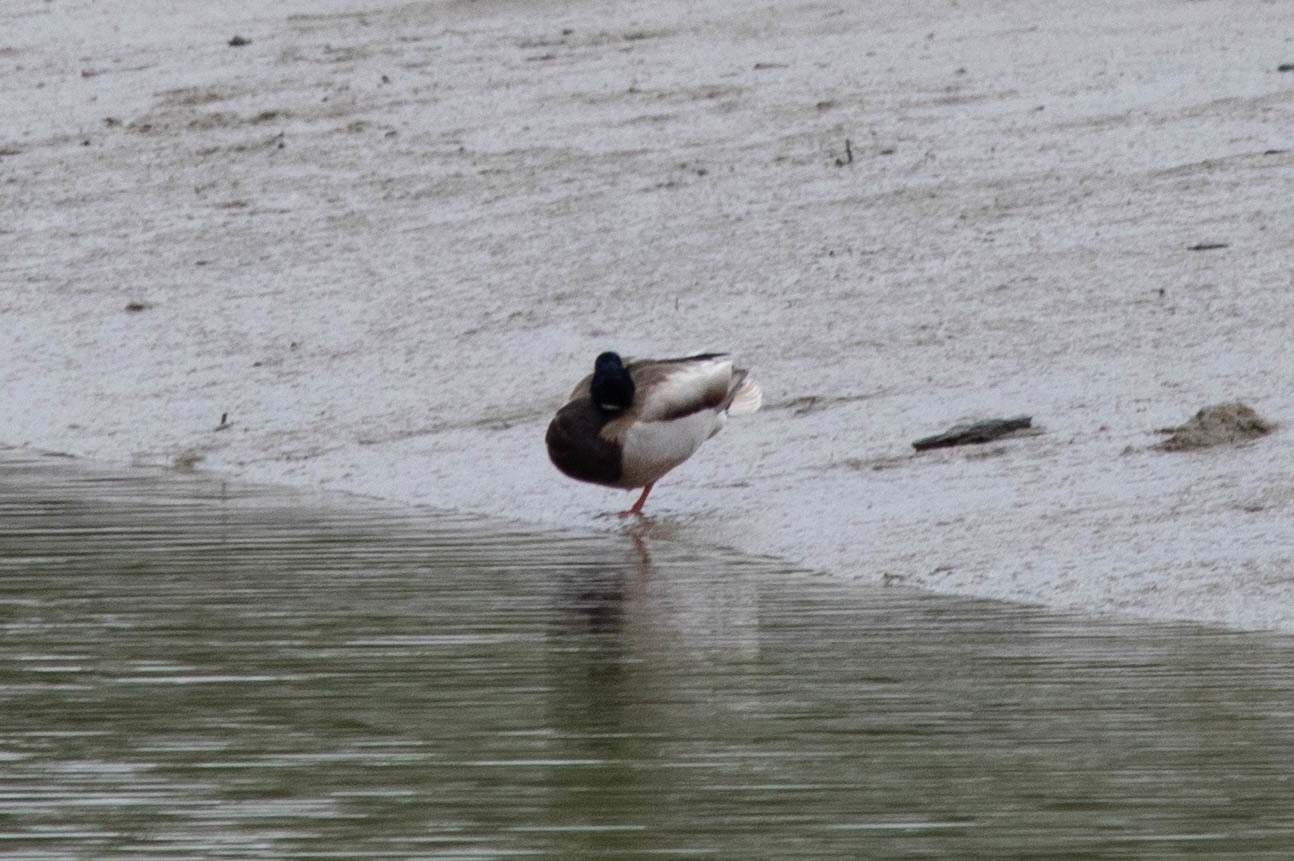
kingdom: Animalia
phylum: Chordata
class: Aves
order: Anseriformes
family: Anatidae
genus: Anas
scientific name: Anas platyrhynchos
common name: Mallard
